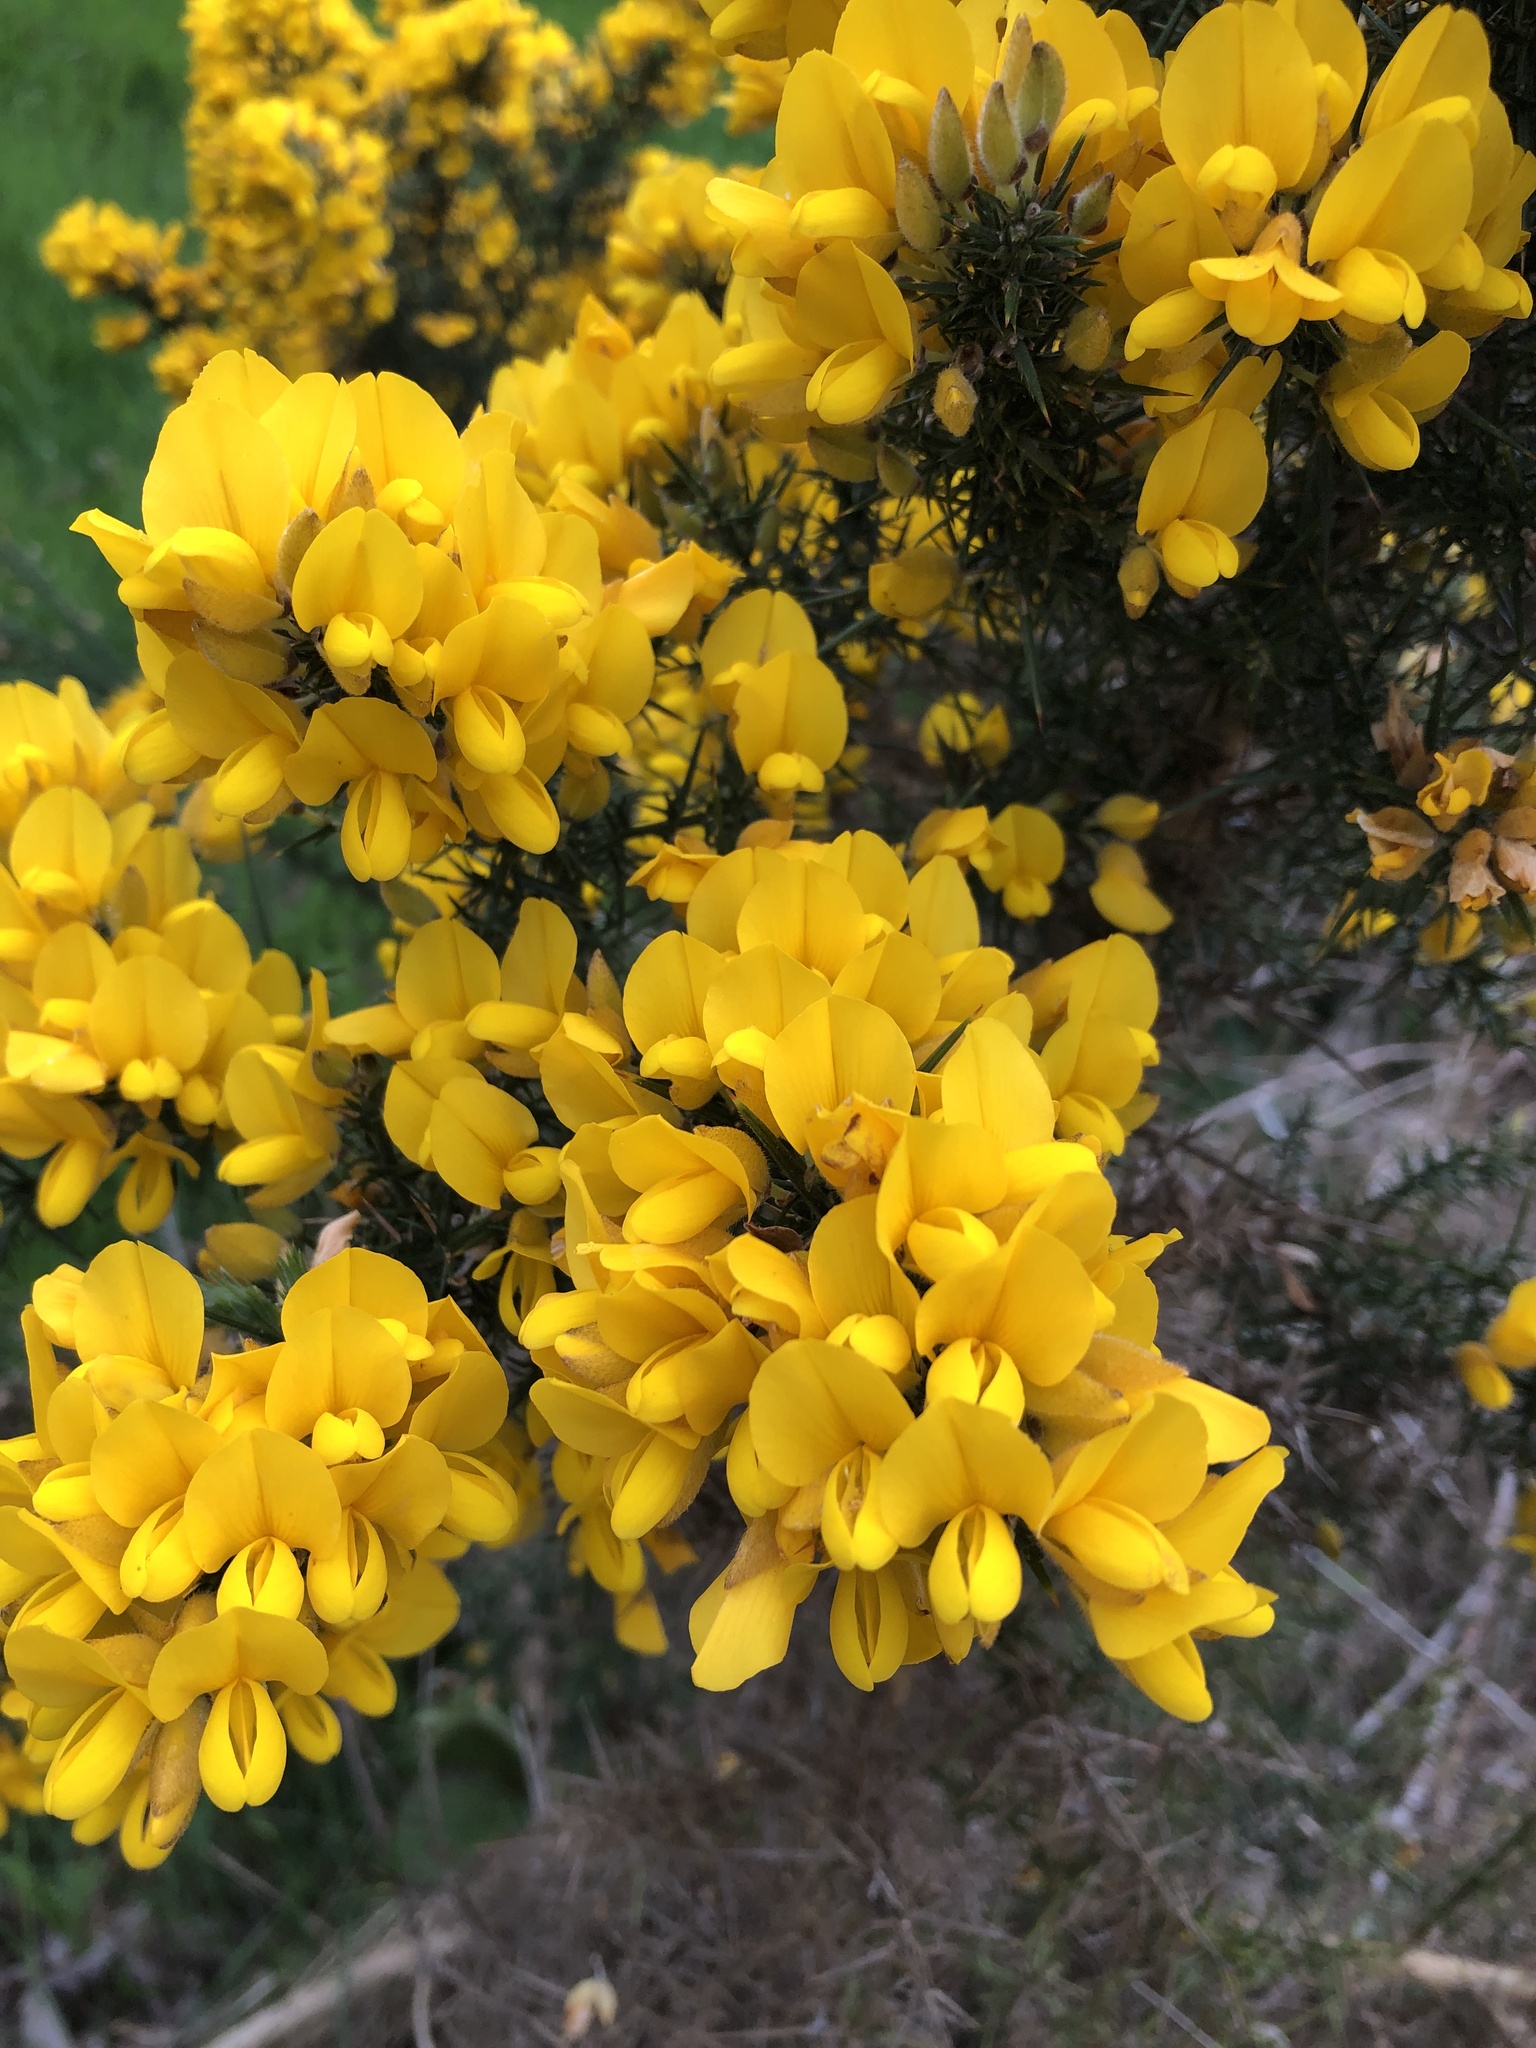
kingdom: Plantae
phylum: Tracheophyta
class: Magnoliopsida
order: Fabales
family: Fabaceae
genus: Ulex
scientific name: Ulex europaeus
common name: Common gorse
